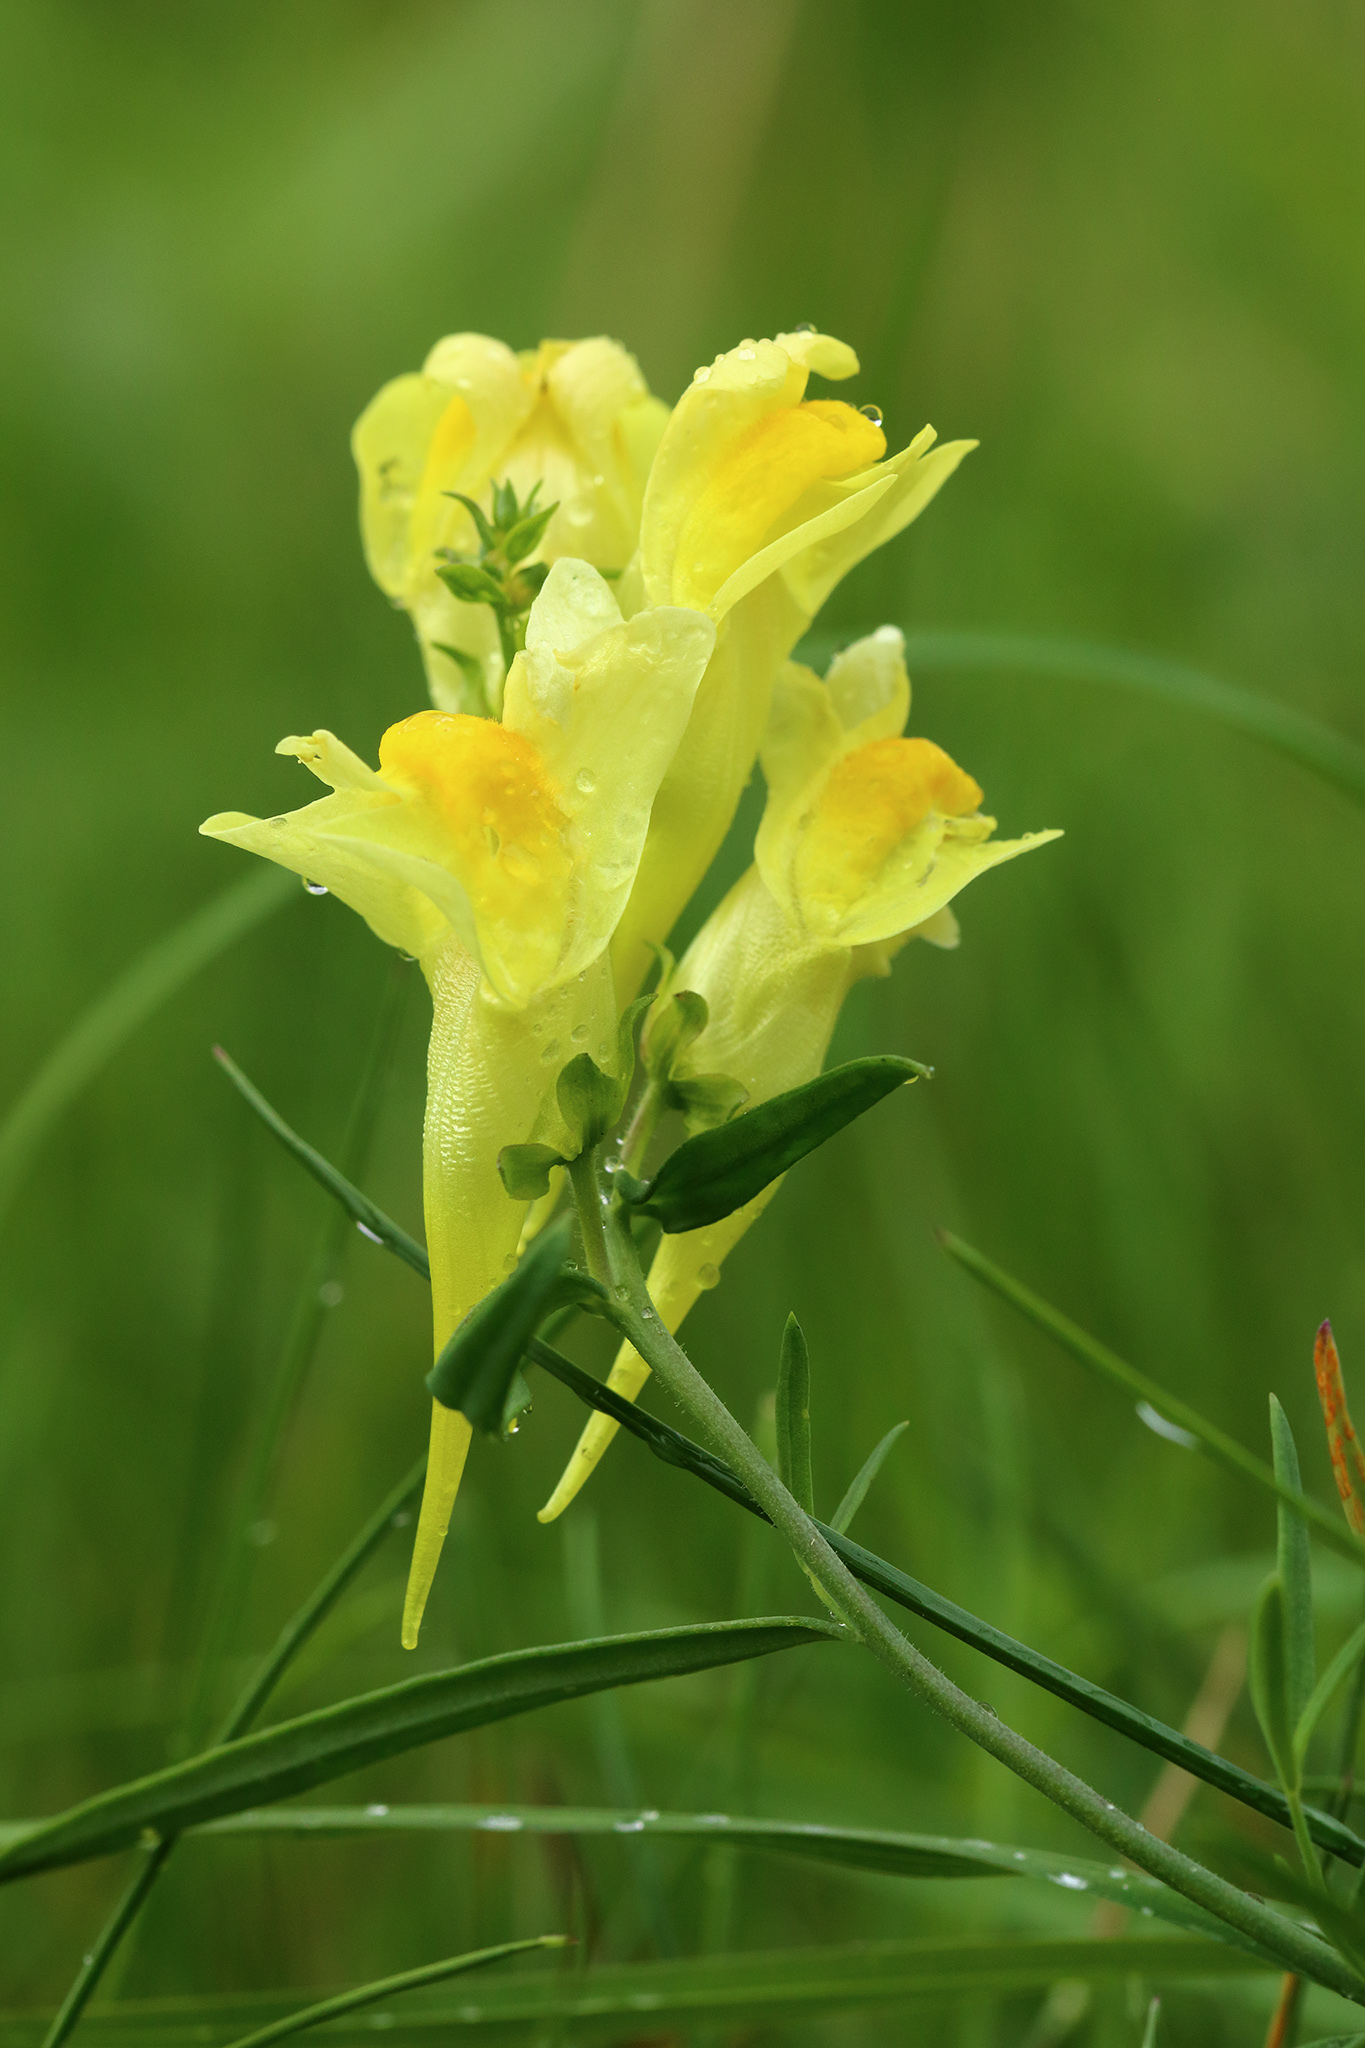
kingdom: Plantae
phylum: Tracheophyta
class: Magnoliopsida
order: Lamiales
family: Plantaginaceae
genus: Linaria
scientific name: Linaria vulgaris
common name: Butter and eggs
